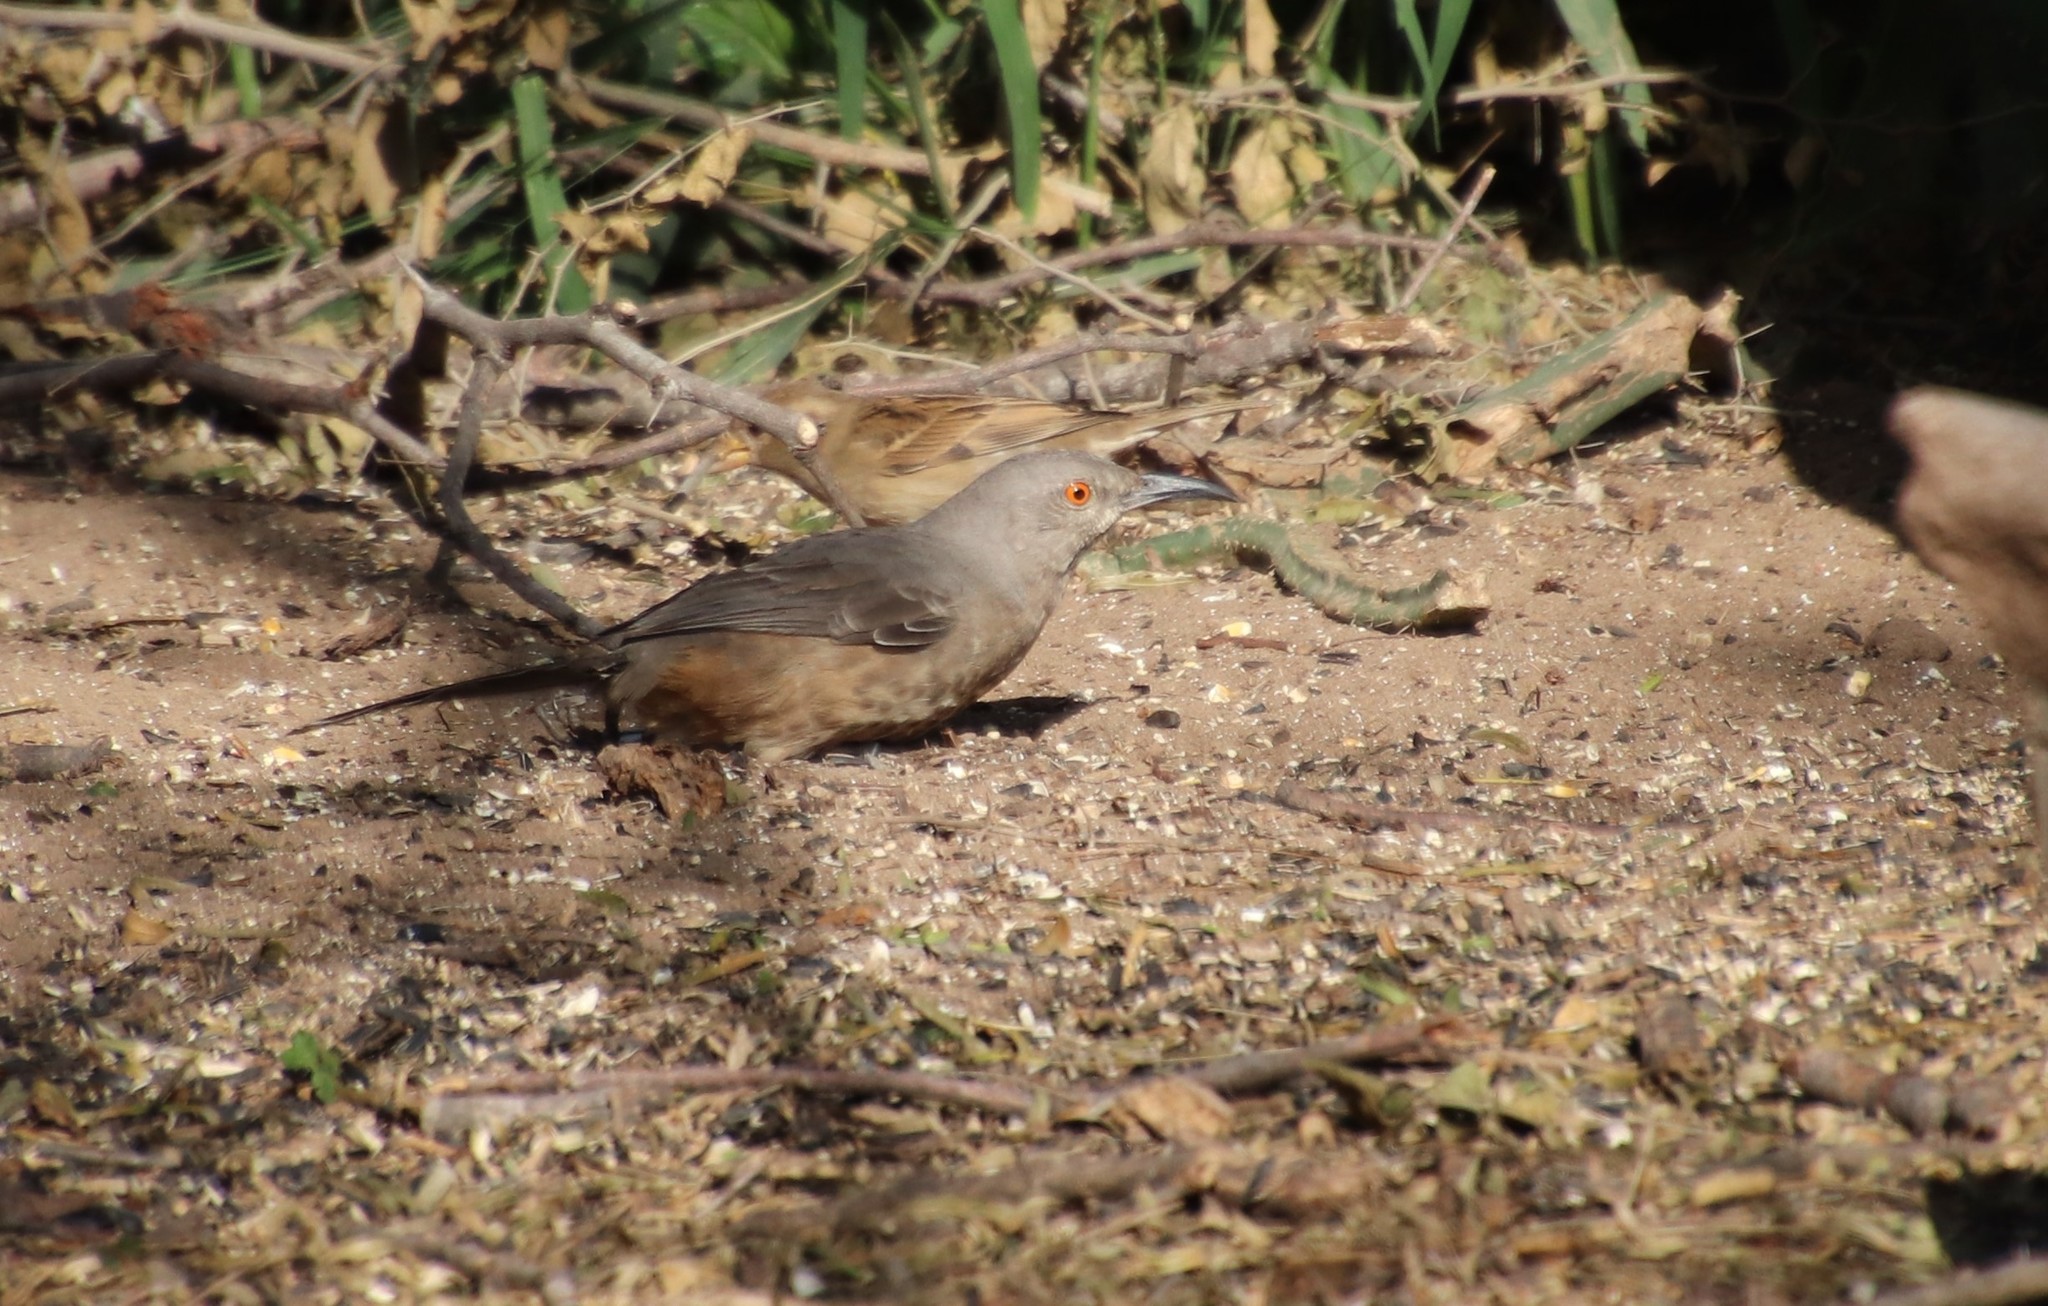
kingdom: Animalia
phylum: Chordata
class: Aves
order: Passeriformes
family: Mimidae
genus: Toxostoma
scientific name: Toxostoma curvirostre
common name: Curve-billed thrasher
